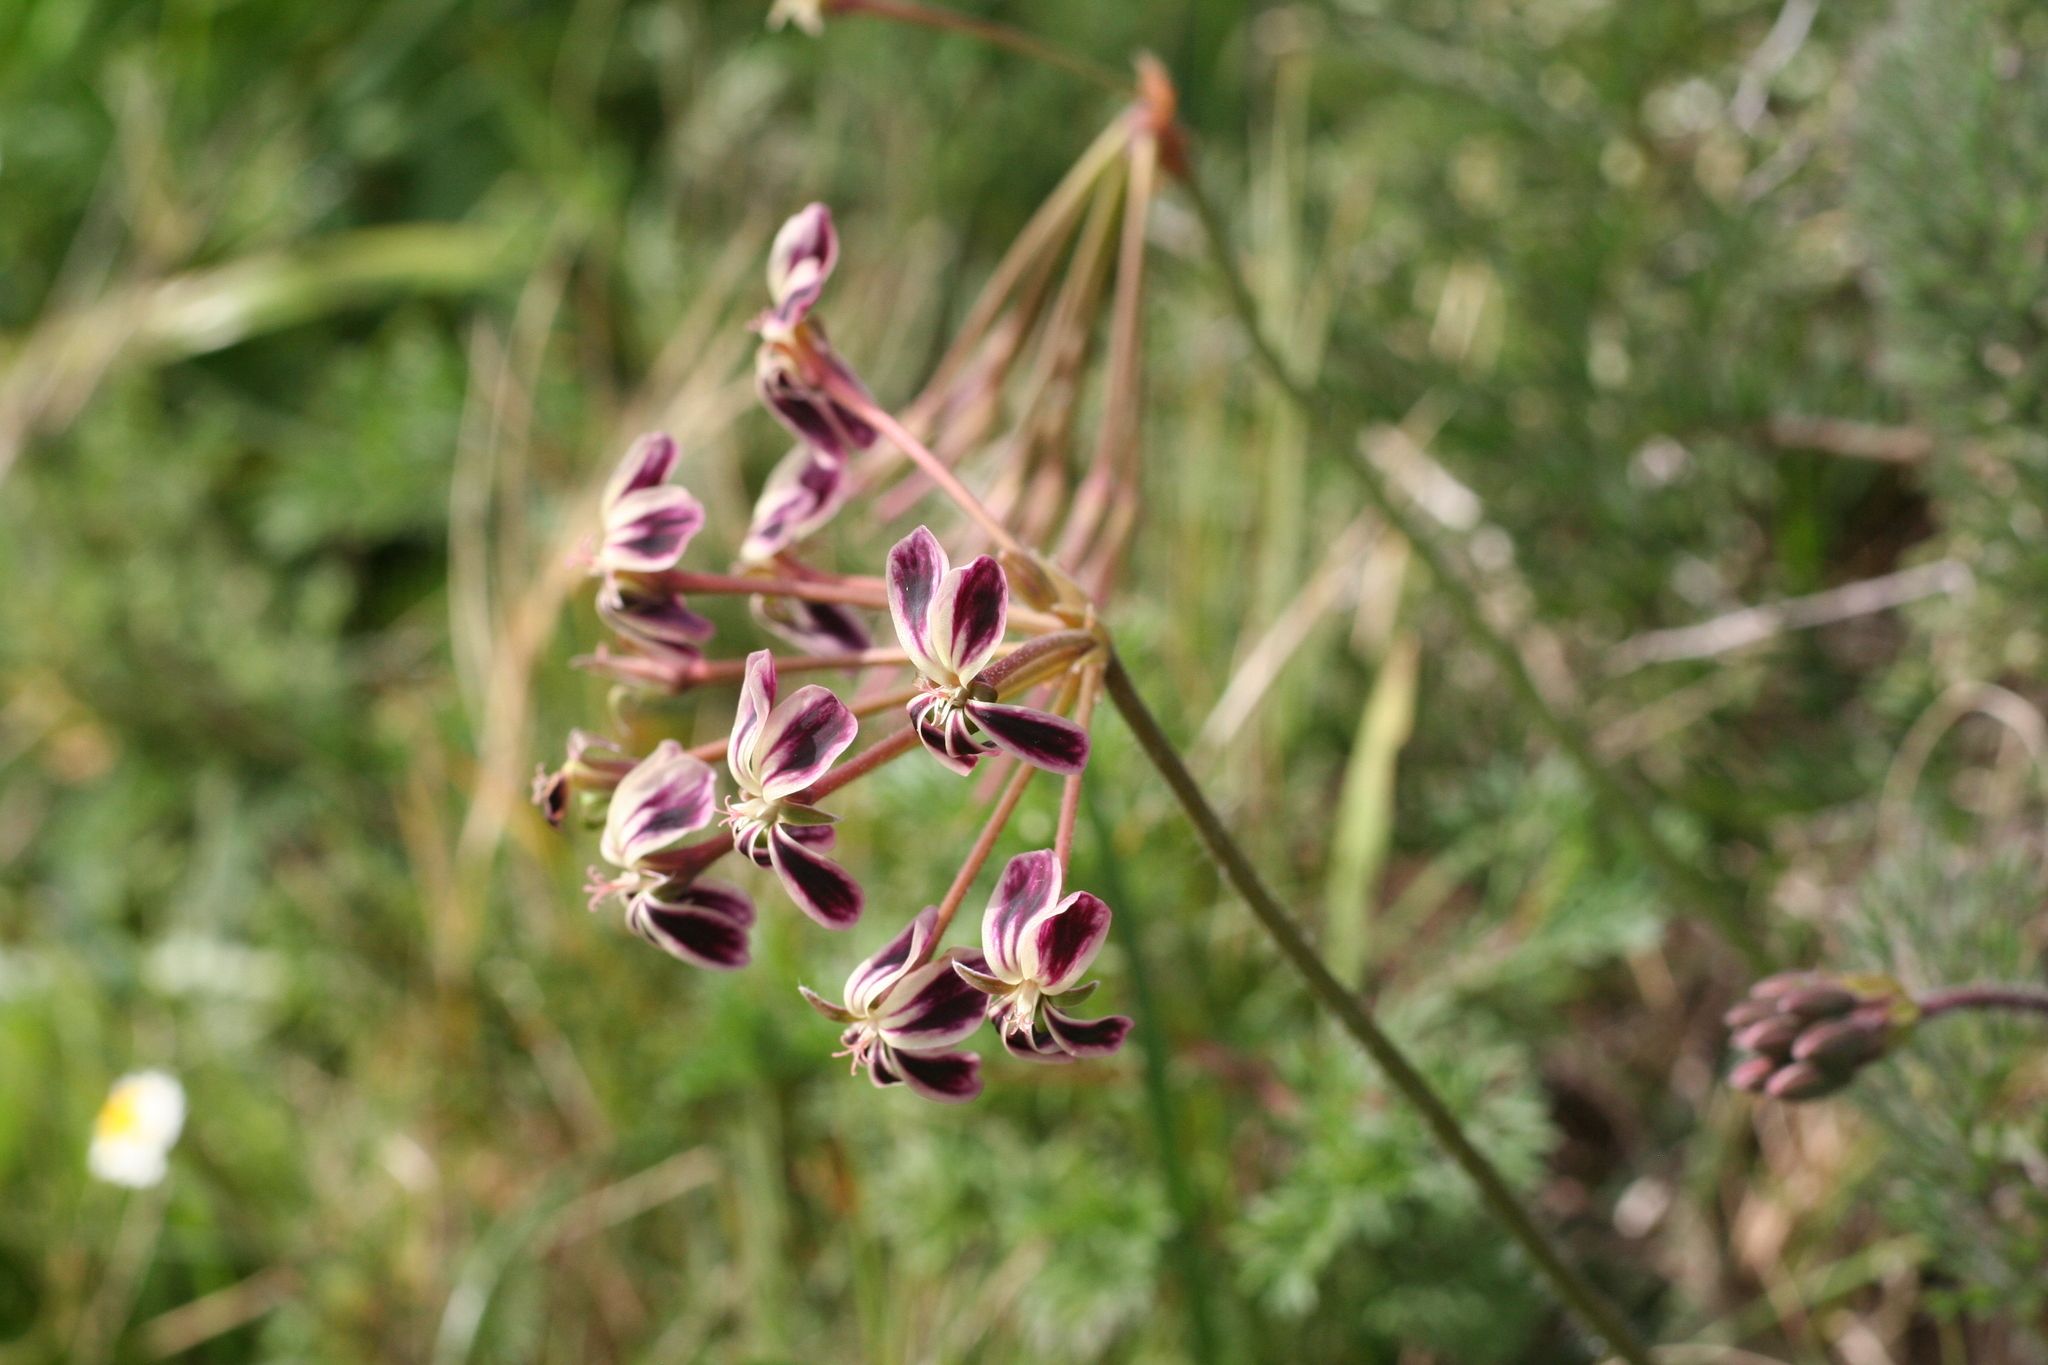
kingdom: Plantae
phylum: Tracheophyta
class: Magnoliopsida
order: Geraniales
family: Geraniaceae
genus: Pelargonium
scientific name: Pelargonium triste
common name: Night-scent pelargonium
